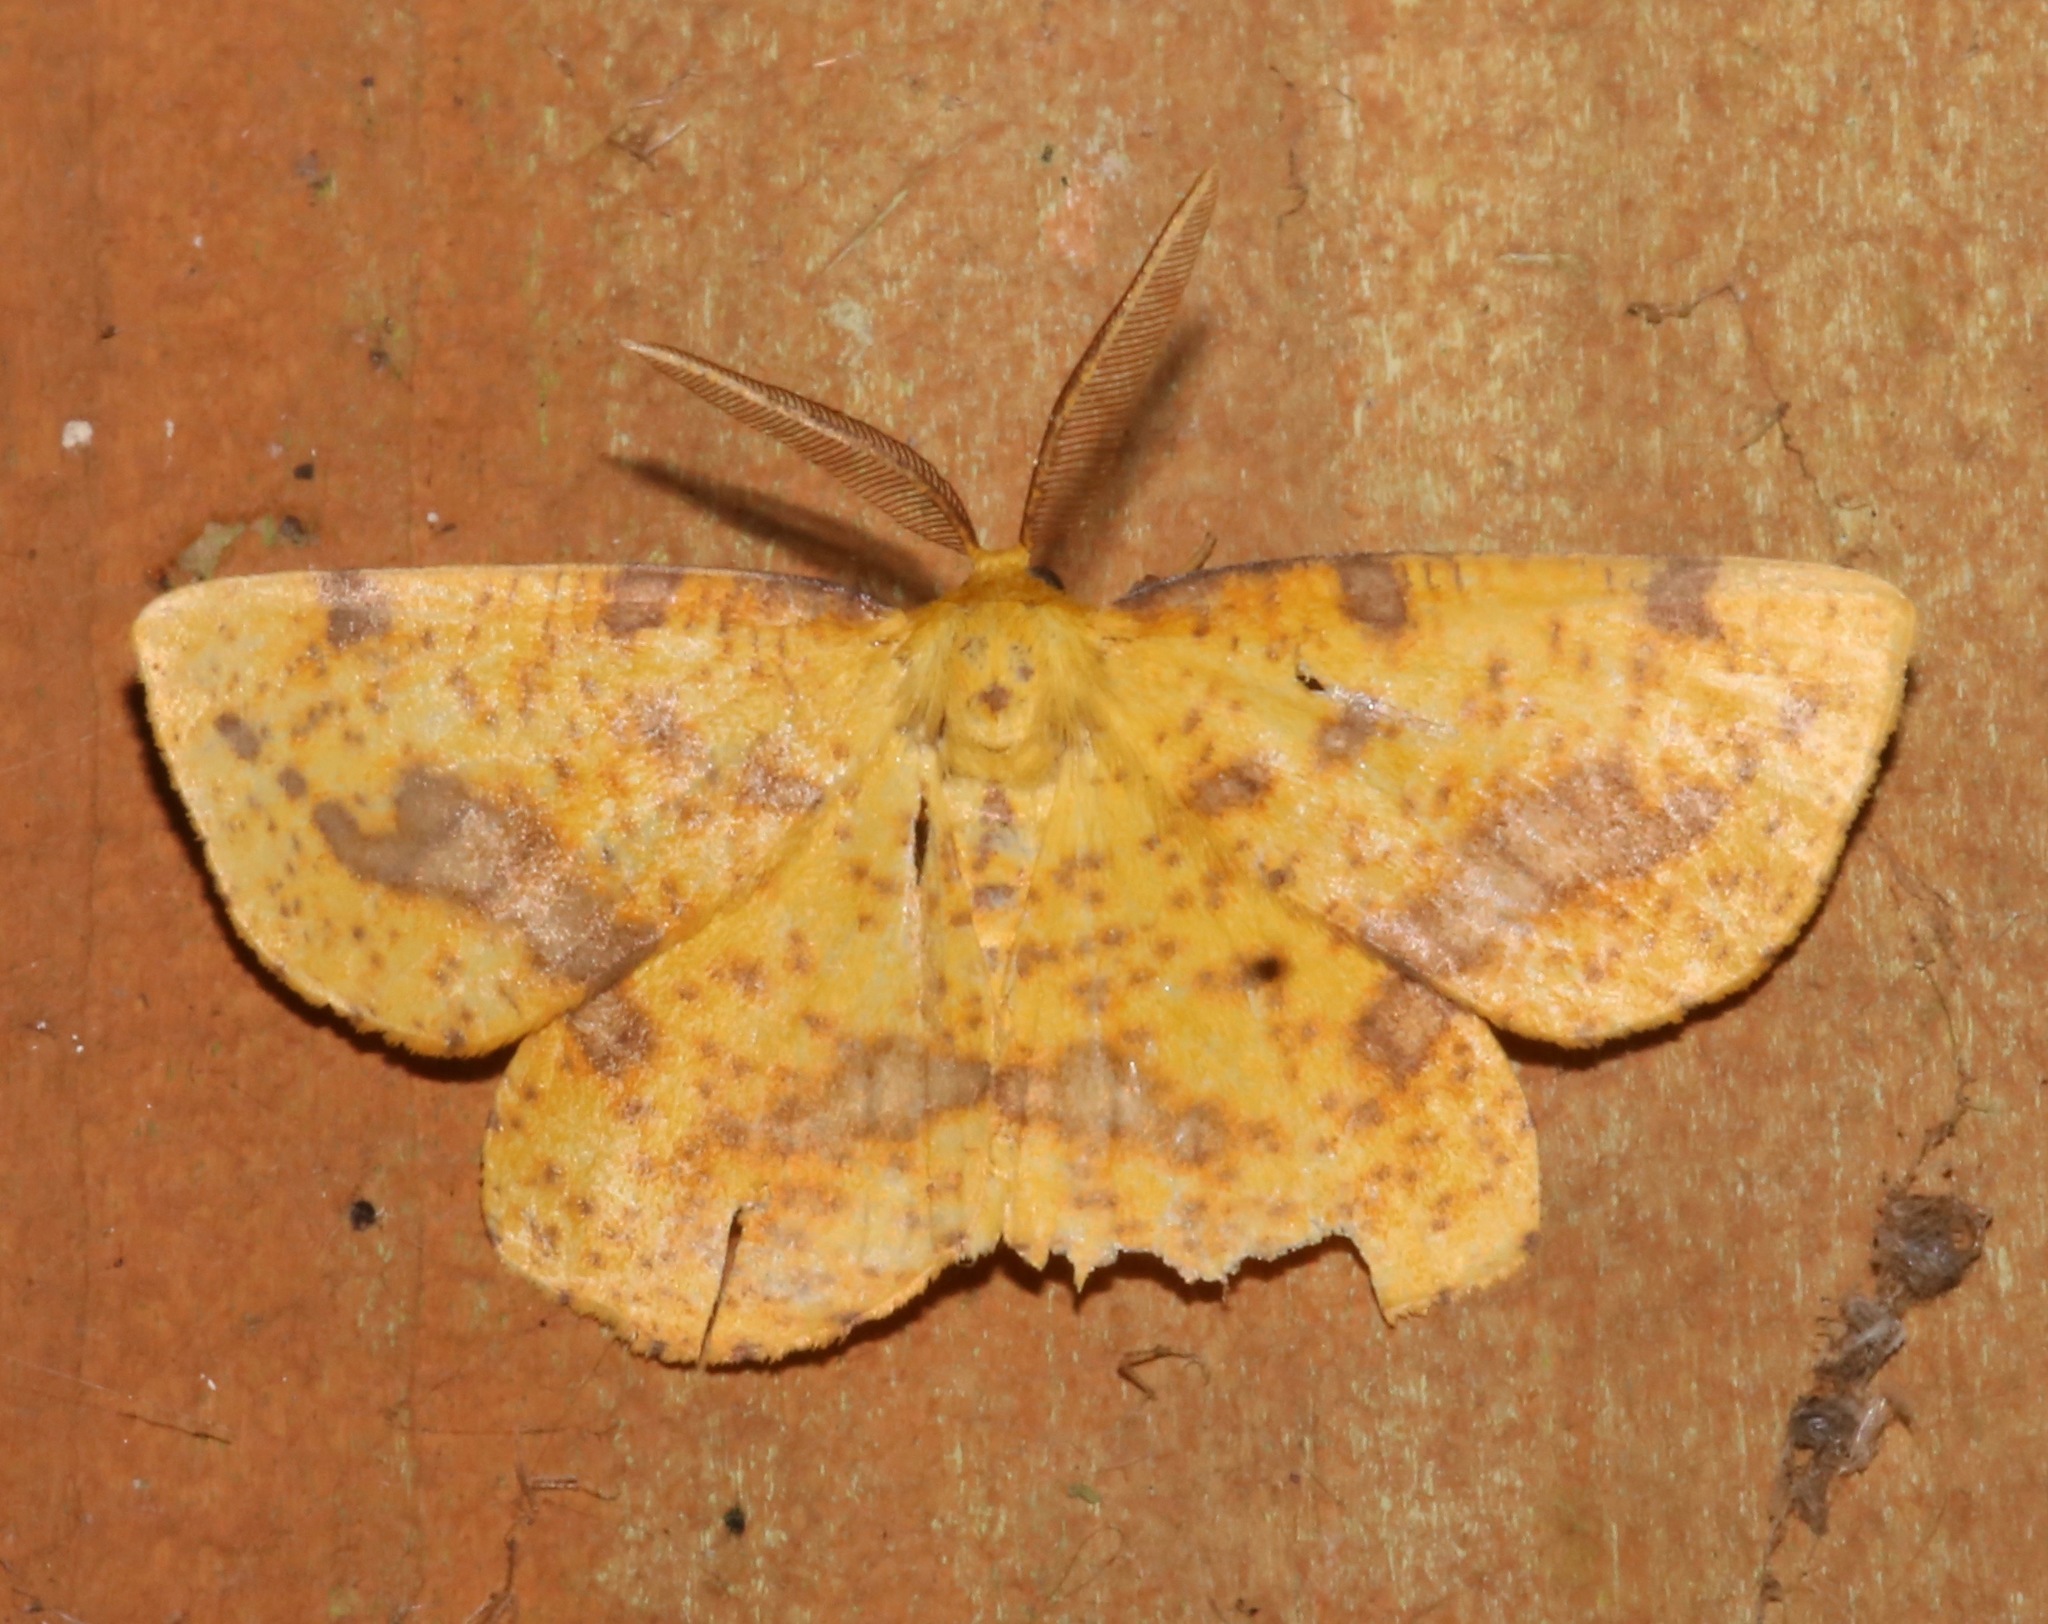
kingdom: Animalia
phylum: Arthropoda
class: Insecta
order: Lepidoptera
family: Geometridae
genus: Xanthotype
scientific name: Xanthotype
